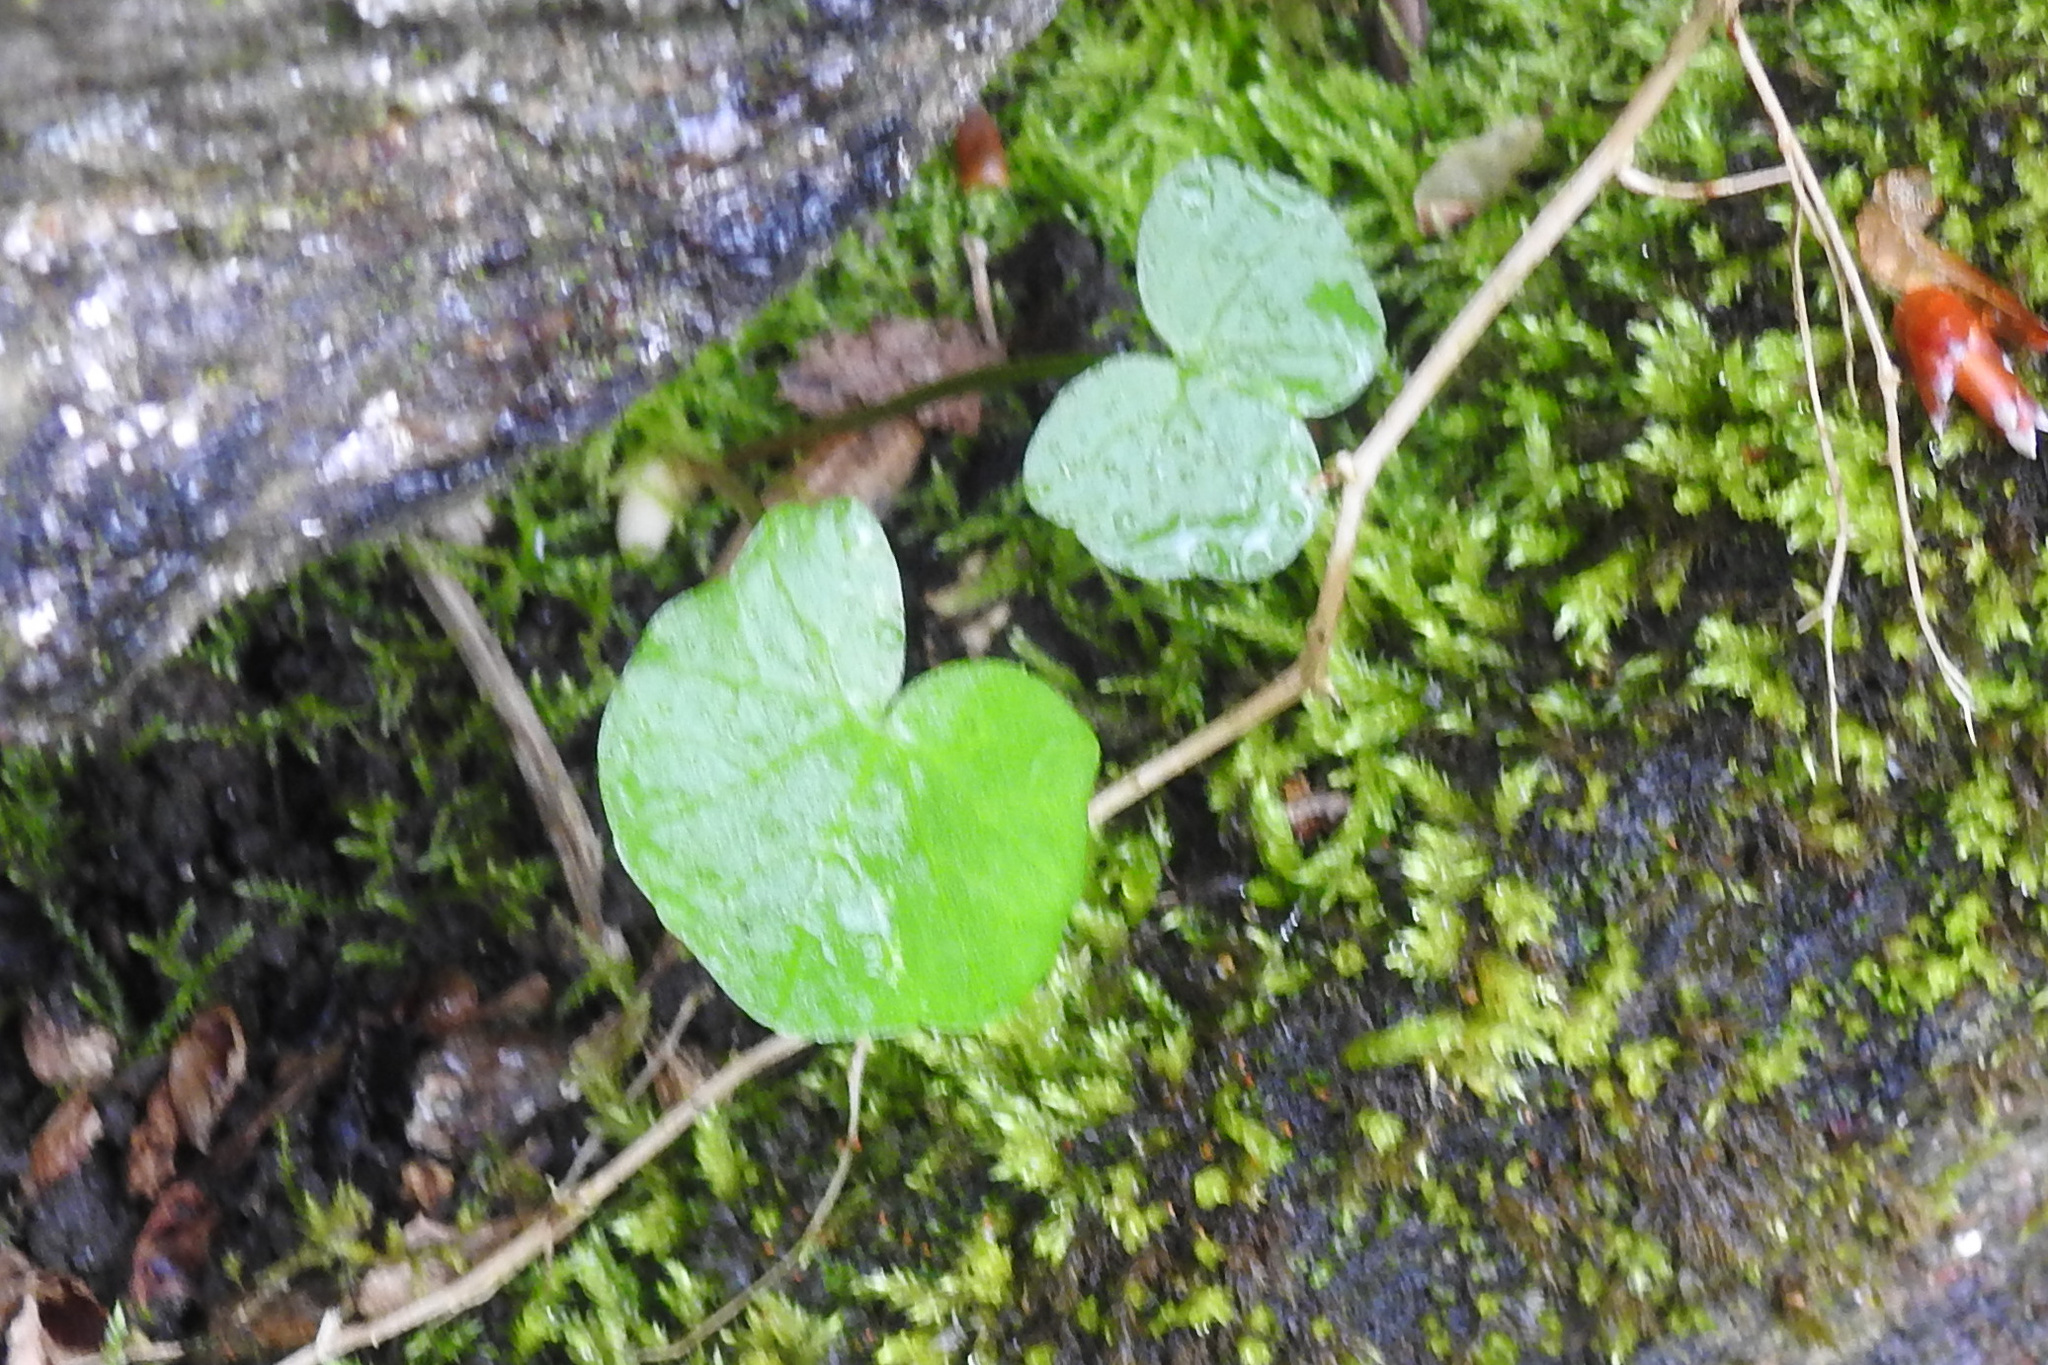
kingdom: Plantae
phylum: Tracheophyta
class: Magnoliopsida
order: Ranunculales
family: Ranunculaceae
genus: Ficaria
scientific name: Ficaria verna
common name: Lesser celandine
